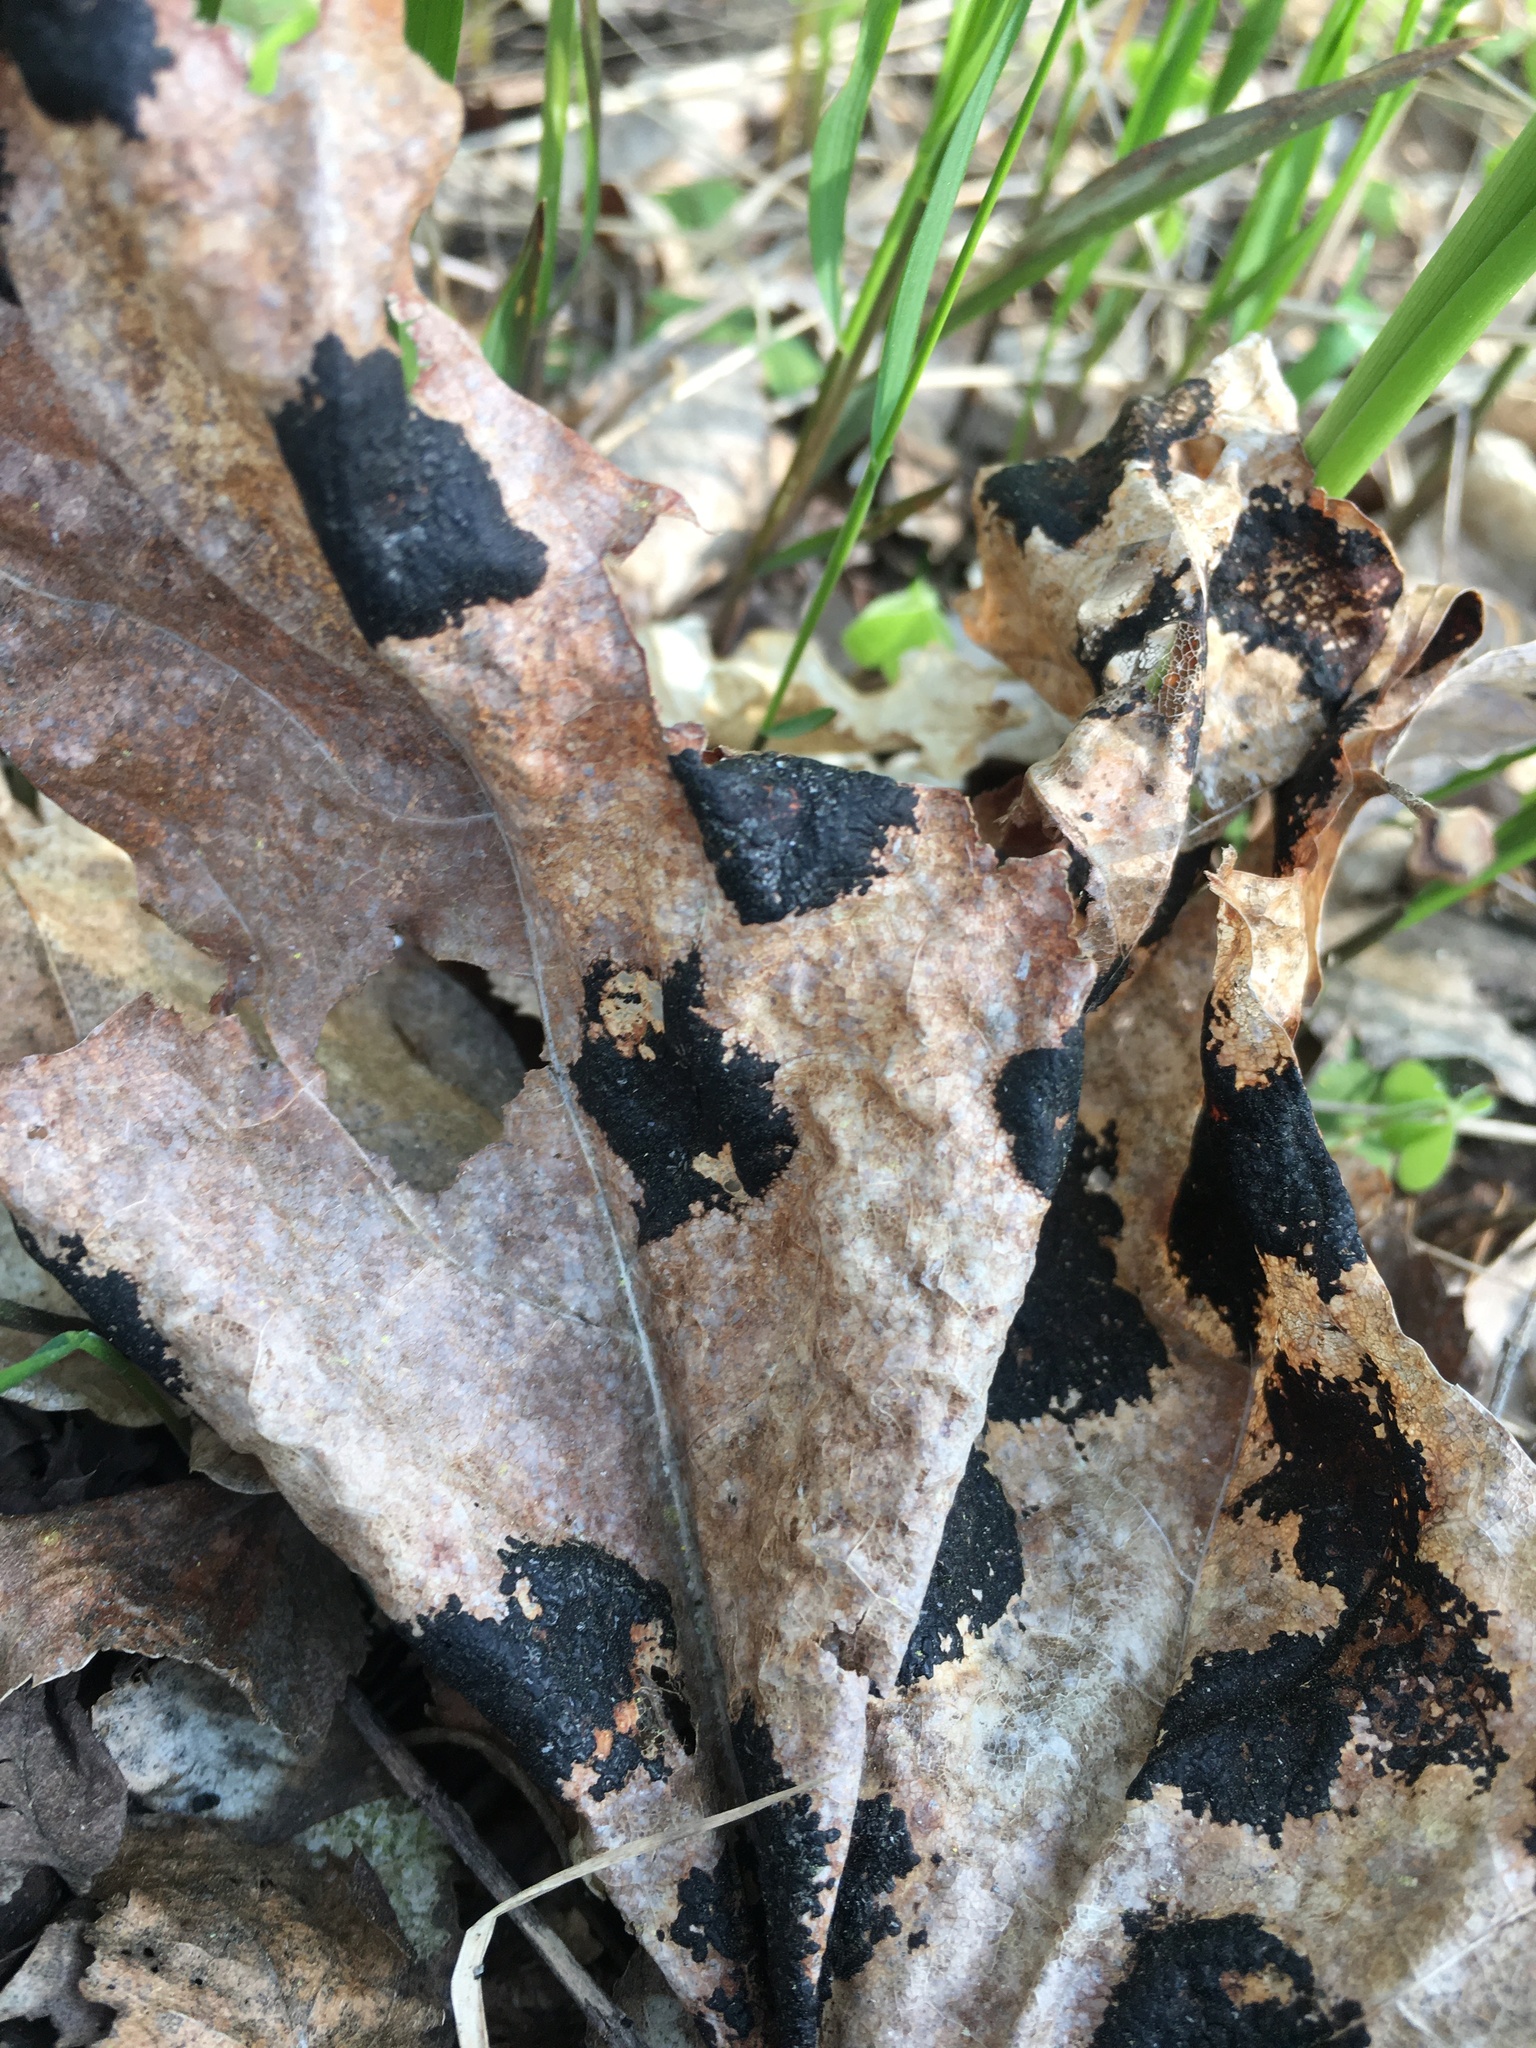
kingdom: Fungi
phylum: Ascomycota
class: Leotiomycetes
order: Rhytismatales
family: Rhytismataceae
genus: Rhytisma
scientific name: Rhytisma acerinum
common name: European tar spot
